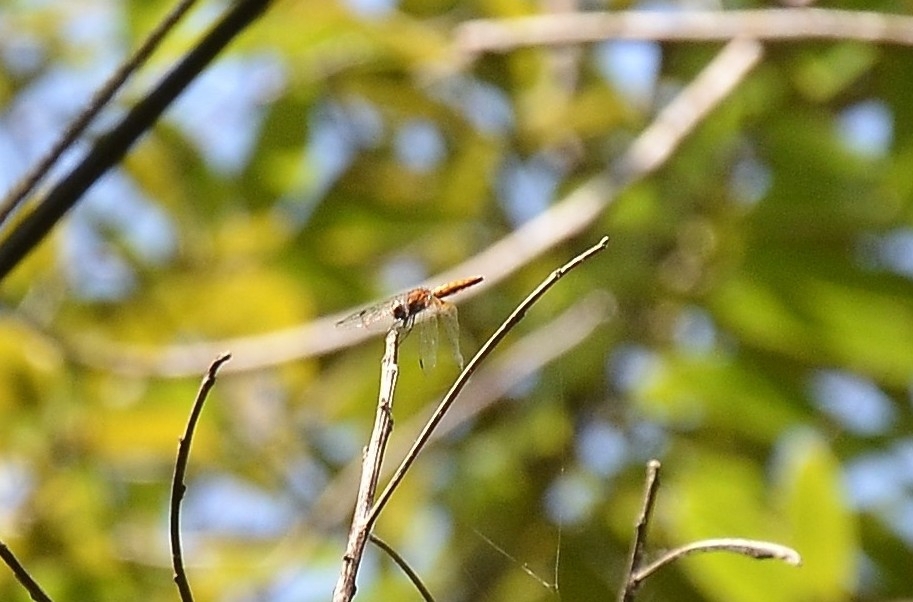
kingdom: Animalia
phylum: Arthropoda
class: Insecta
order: Odonata
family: Libellulidae
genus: Aethriamanta
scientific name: Aethriamanta brevipennis
